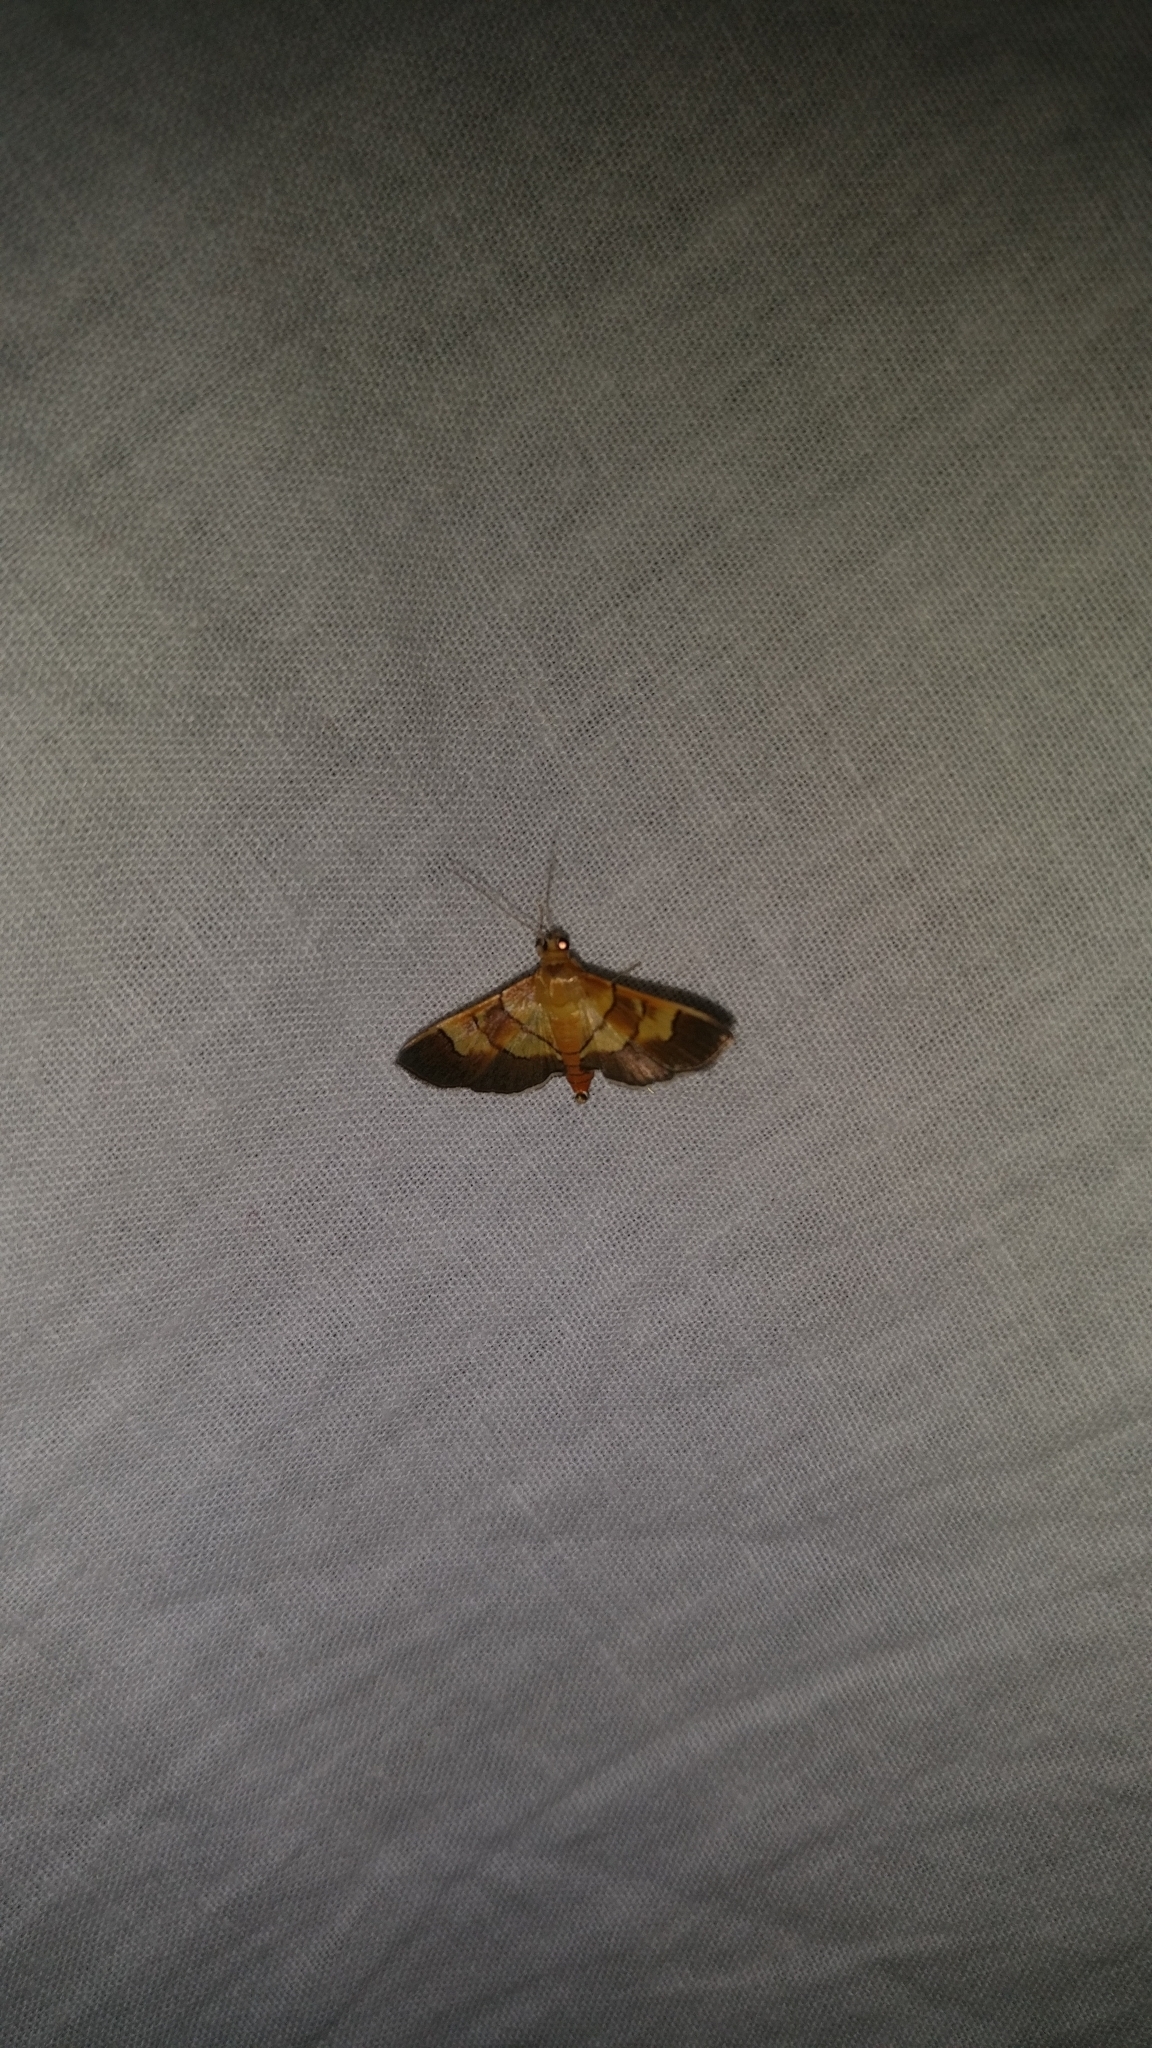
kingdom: Animalia
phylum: Arthropoda
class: Insecta
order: Lepidoptera
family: Crambidae
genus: Syngamia
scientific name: Syngamia latimarginalis
